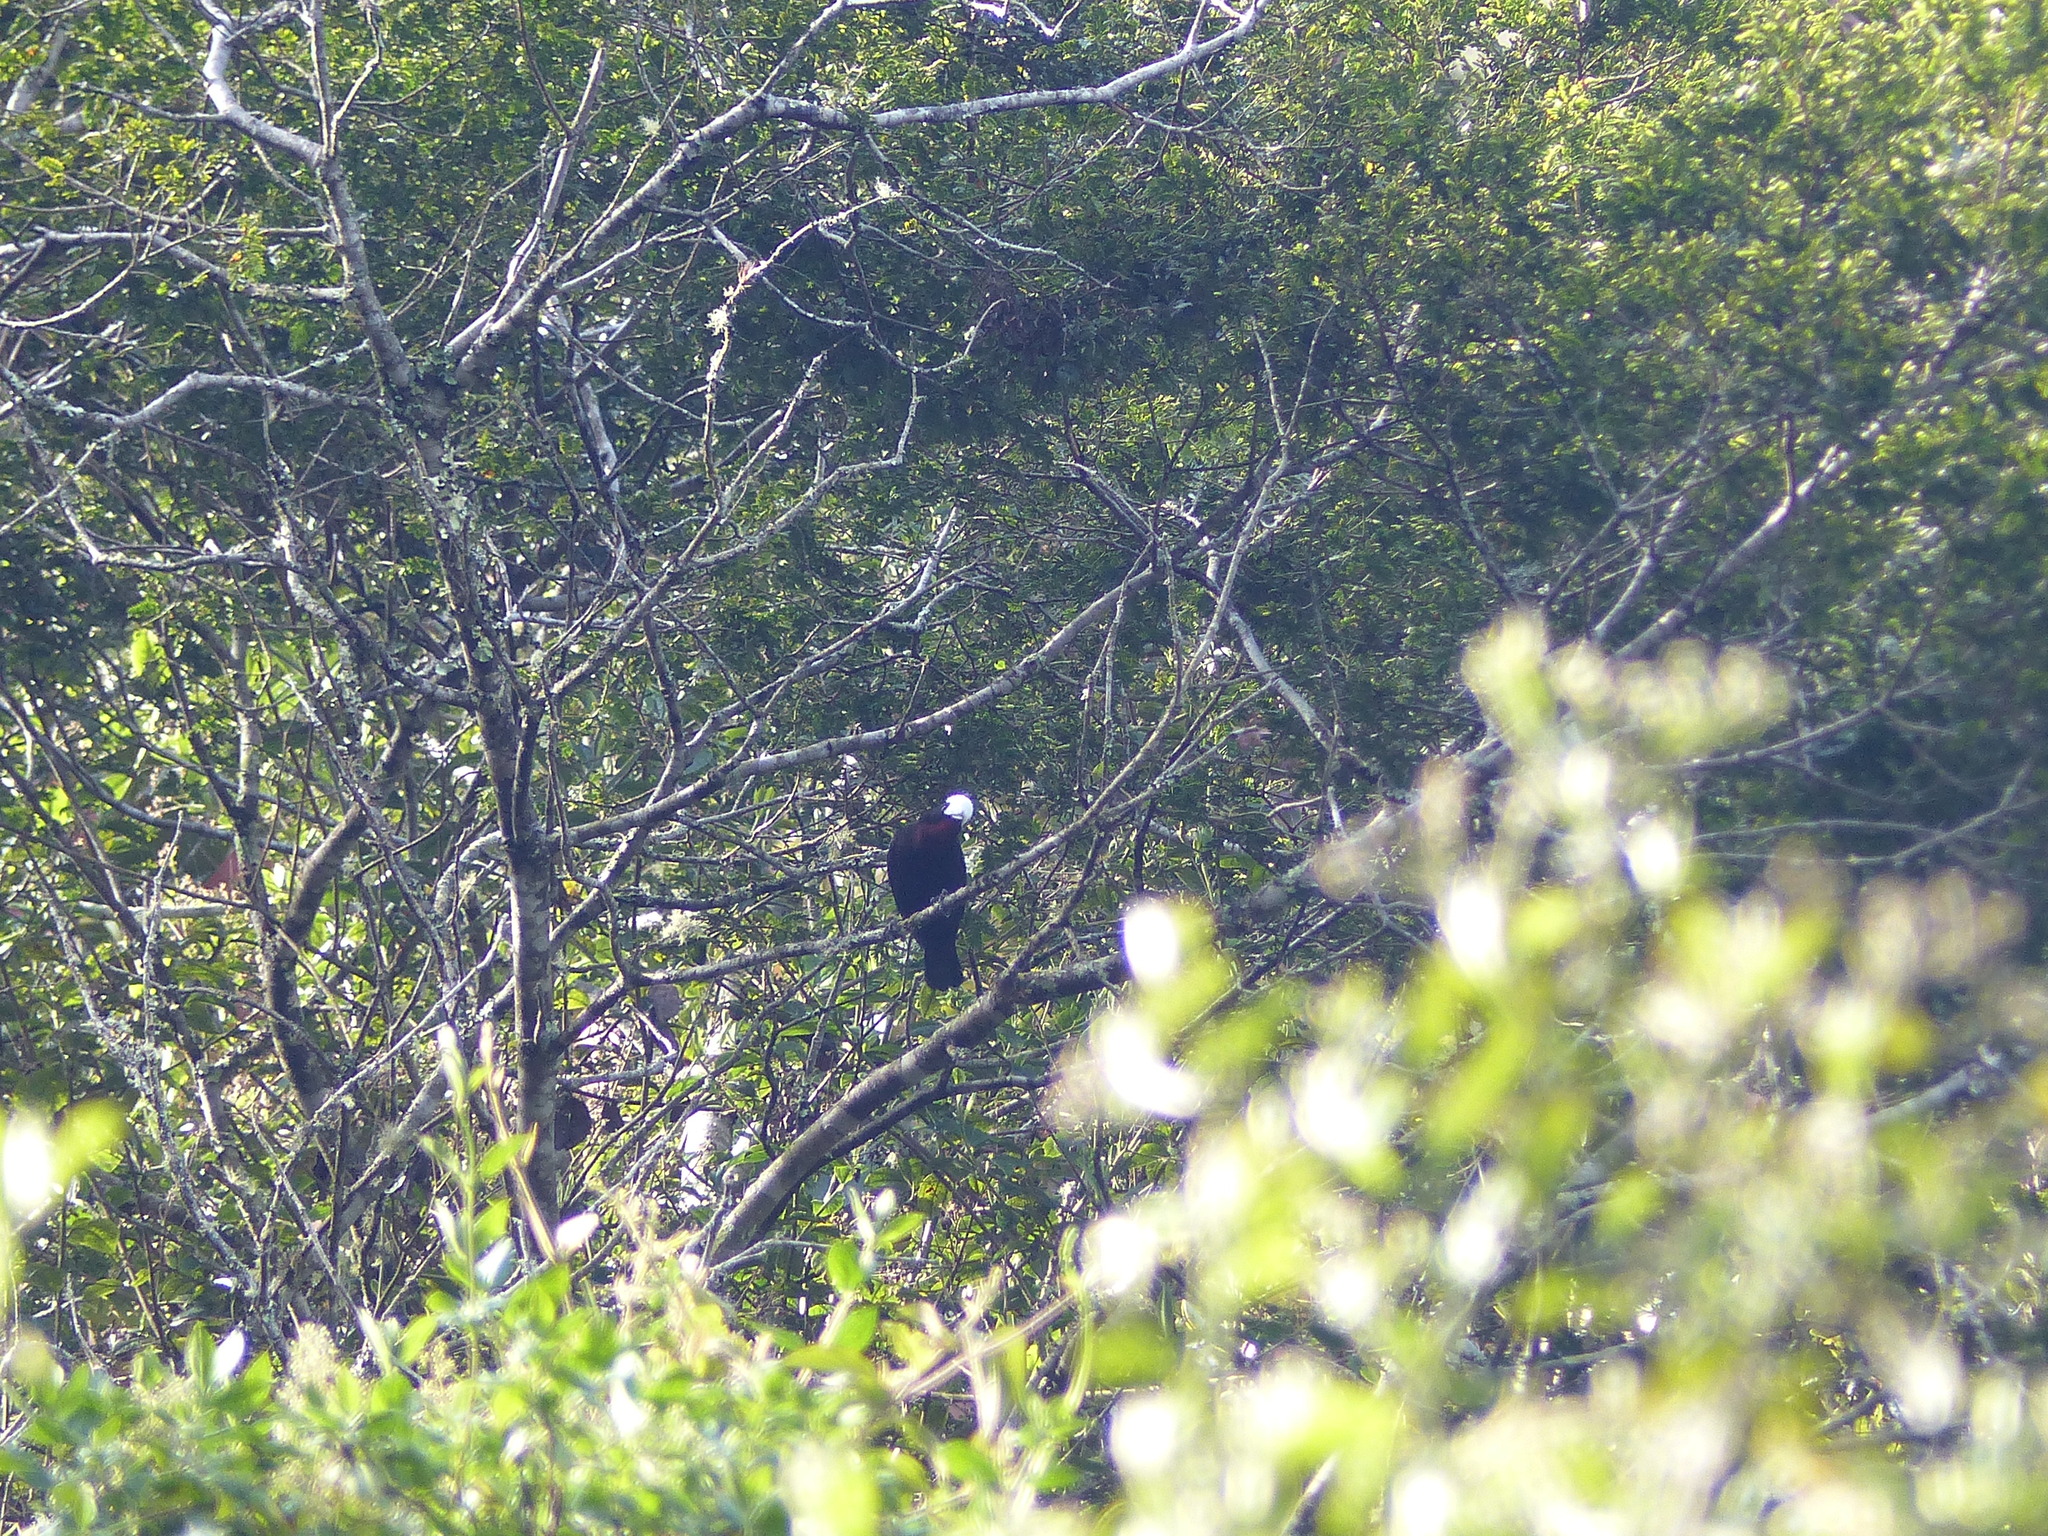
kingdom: Animalia
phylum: Chordata
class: Aves
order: Passeriformes
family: Thraupidae
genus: Sericossypha
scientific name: Sericossypha albocristata
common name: White-capped tanager
